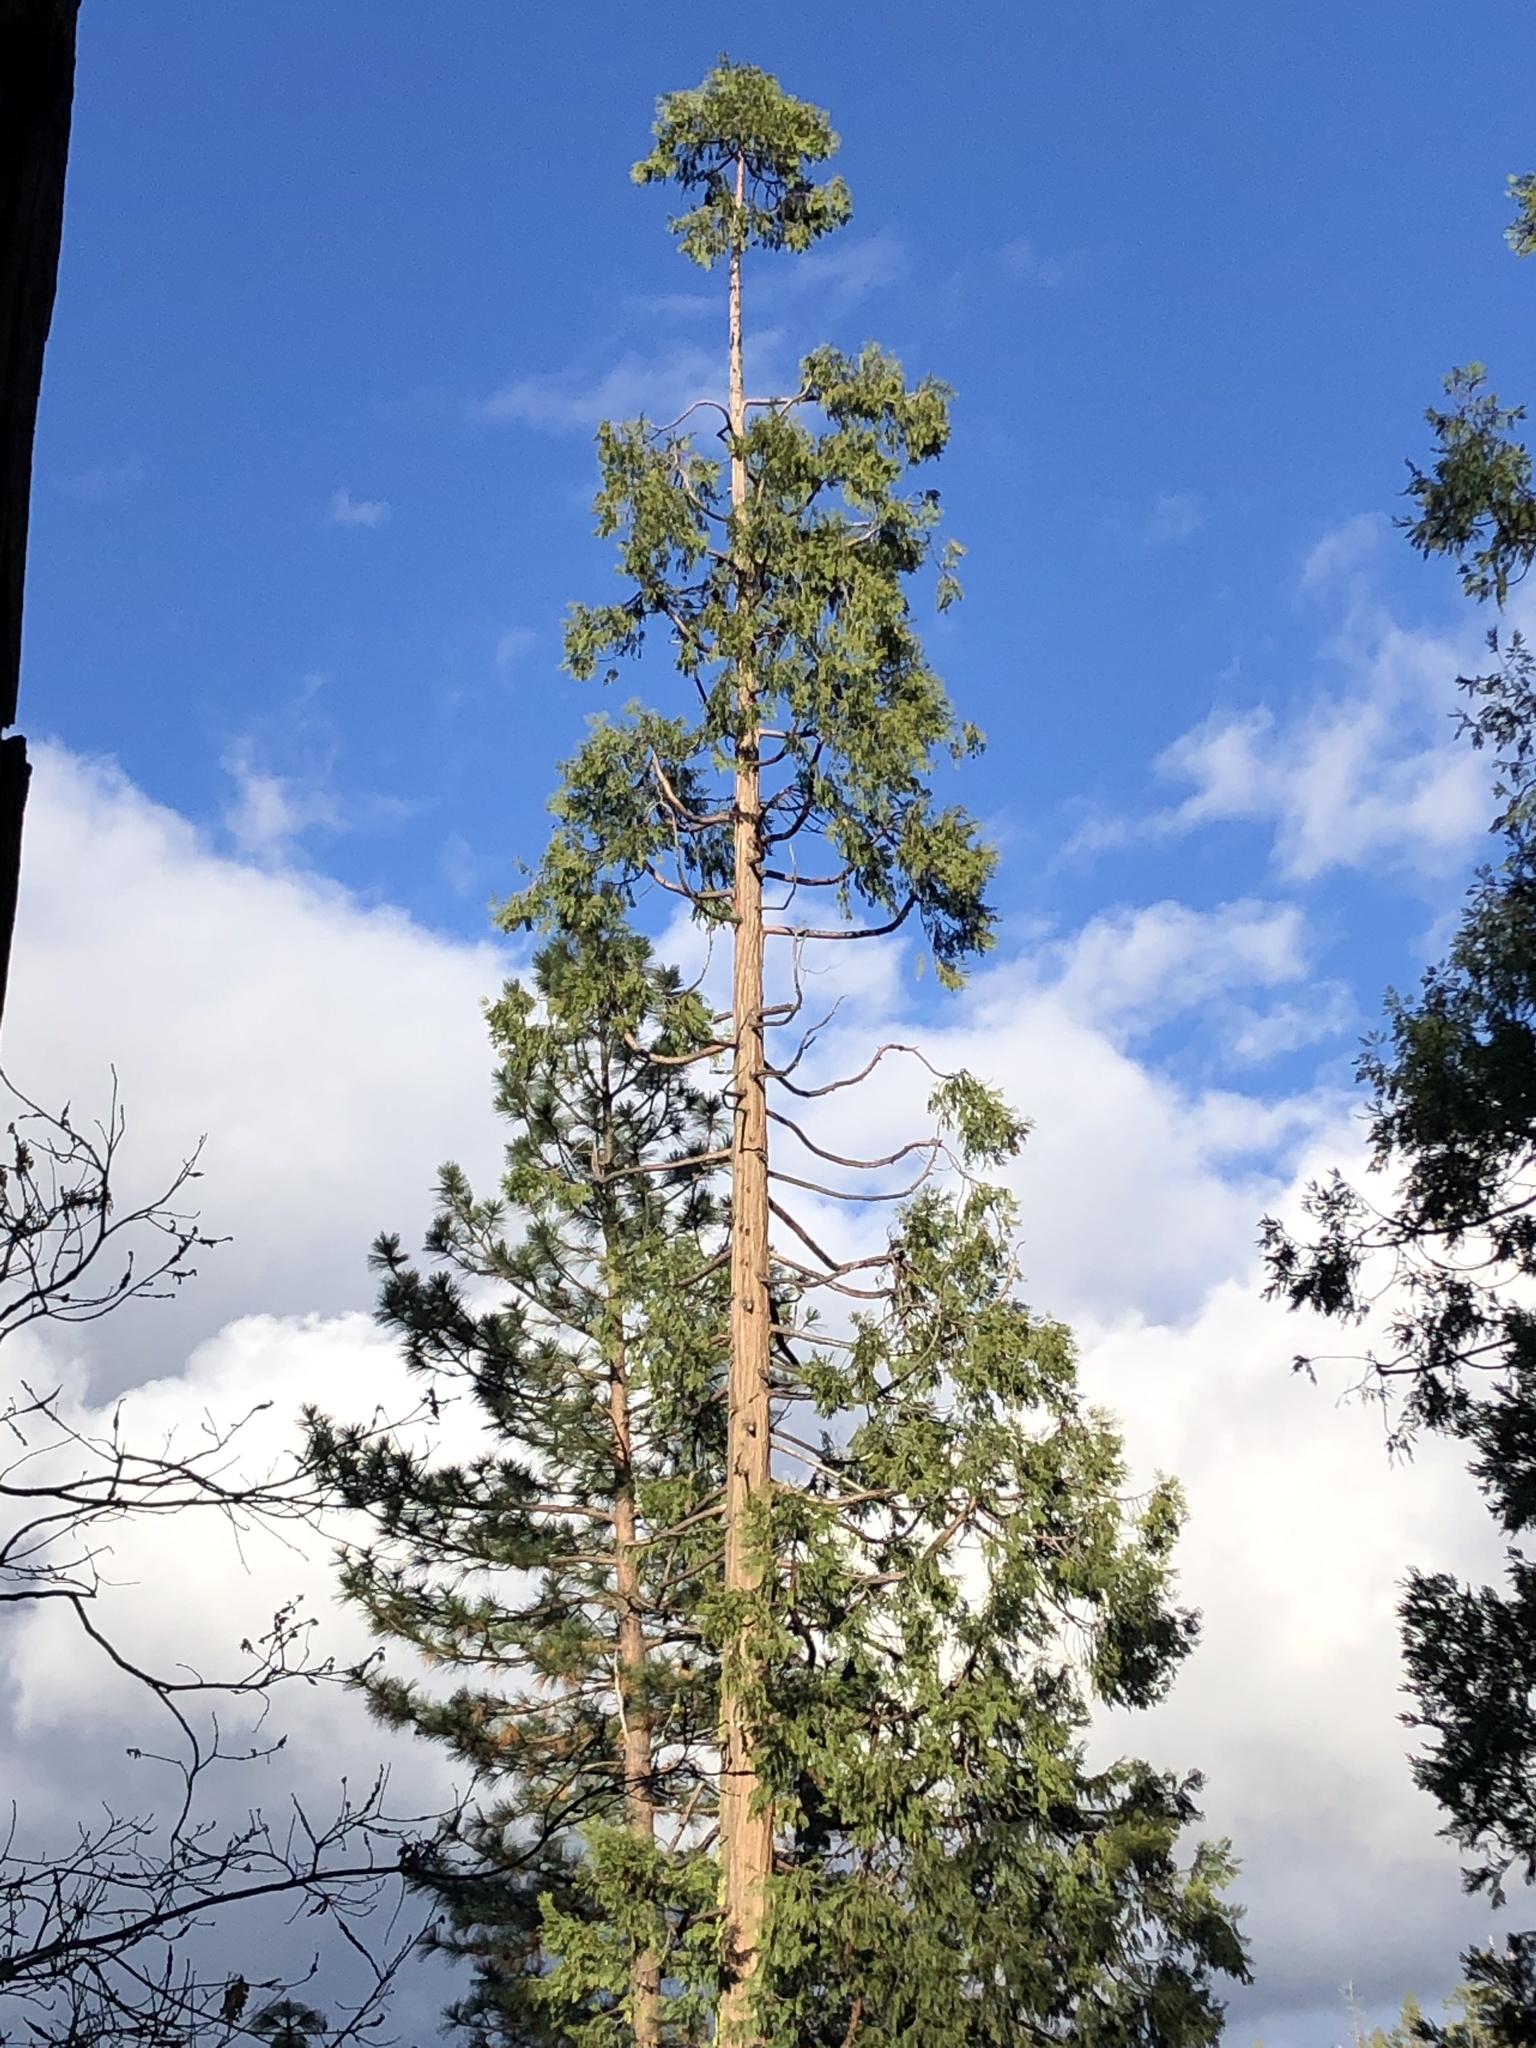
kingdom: Plantae
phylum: Tracheophyta
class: Pinopsida
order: Pinales
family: Cupressaceae
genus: Calocedrus
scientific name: Calocedrus decurrens
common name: Californian incense-cedar
